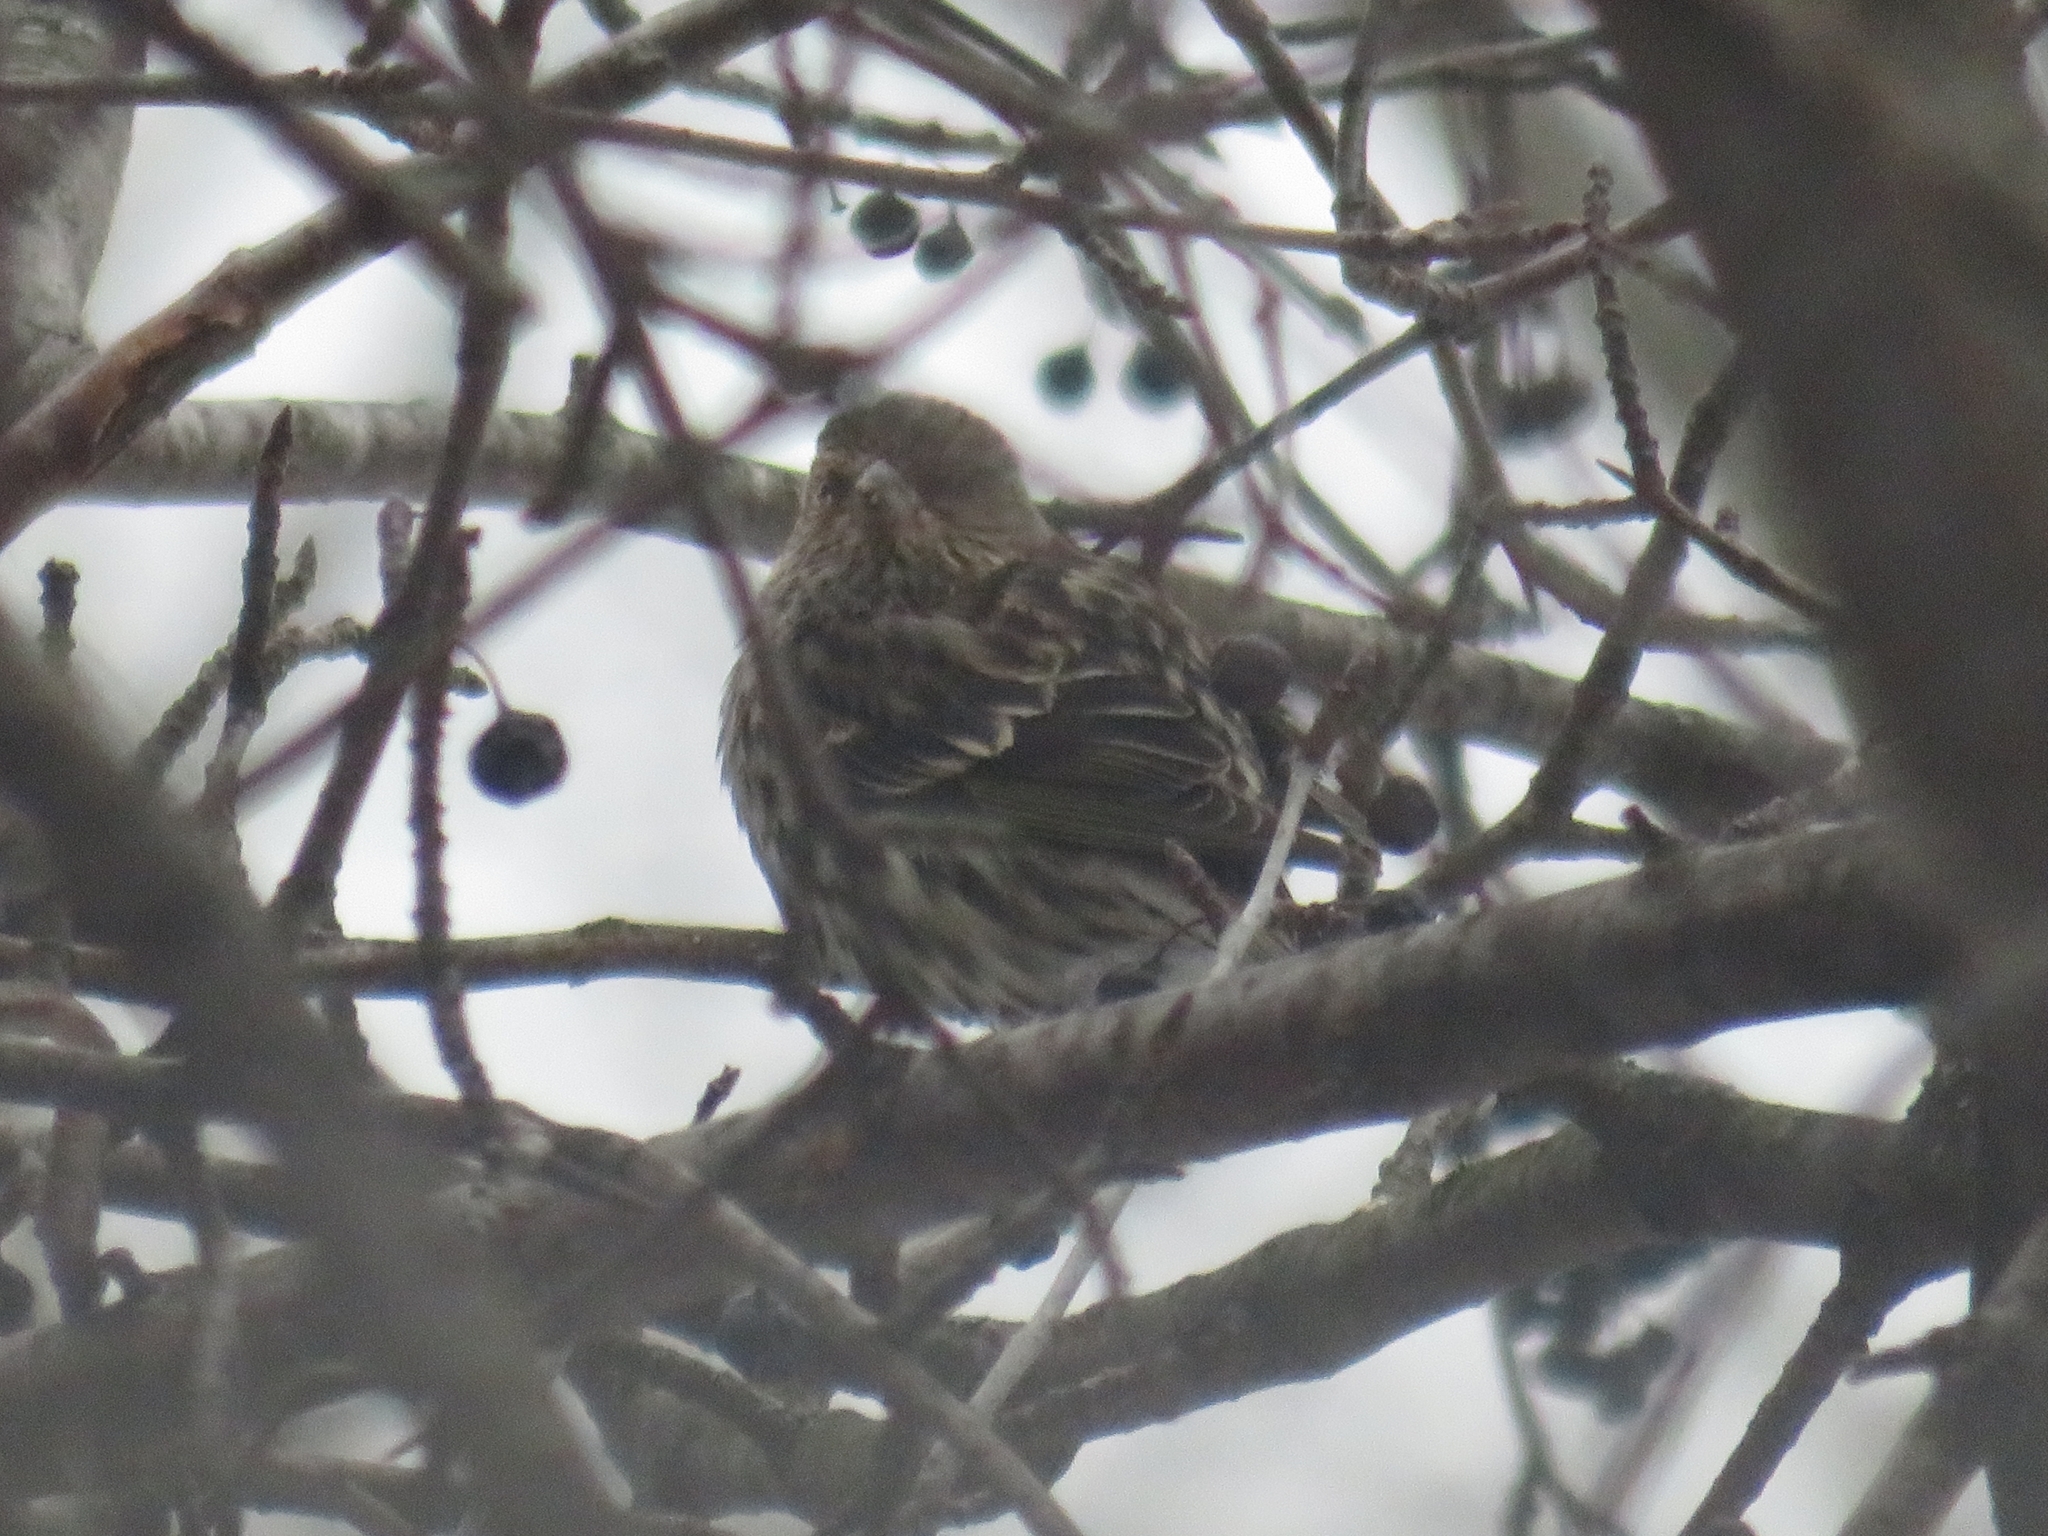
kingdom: Animalia
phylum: Chordata
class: Aves
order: Passeriformes
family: Fringillidae
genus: Spinus
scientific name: Spinus pinus
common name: Pine siskin
